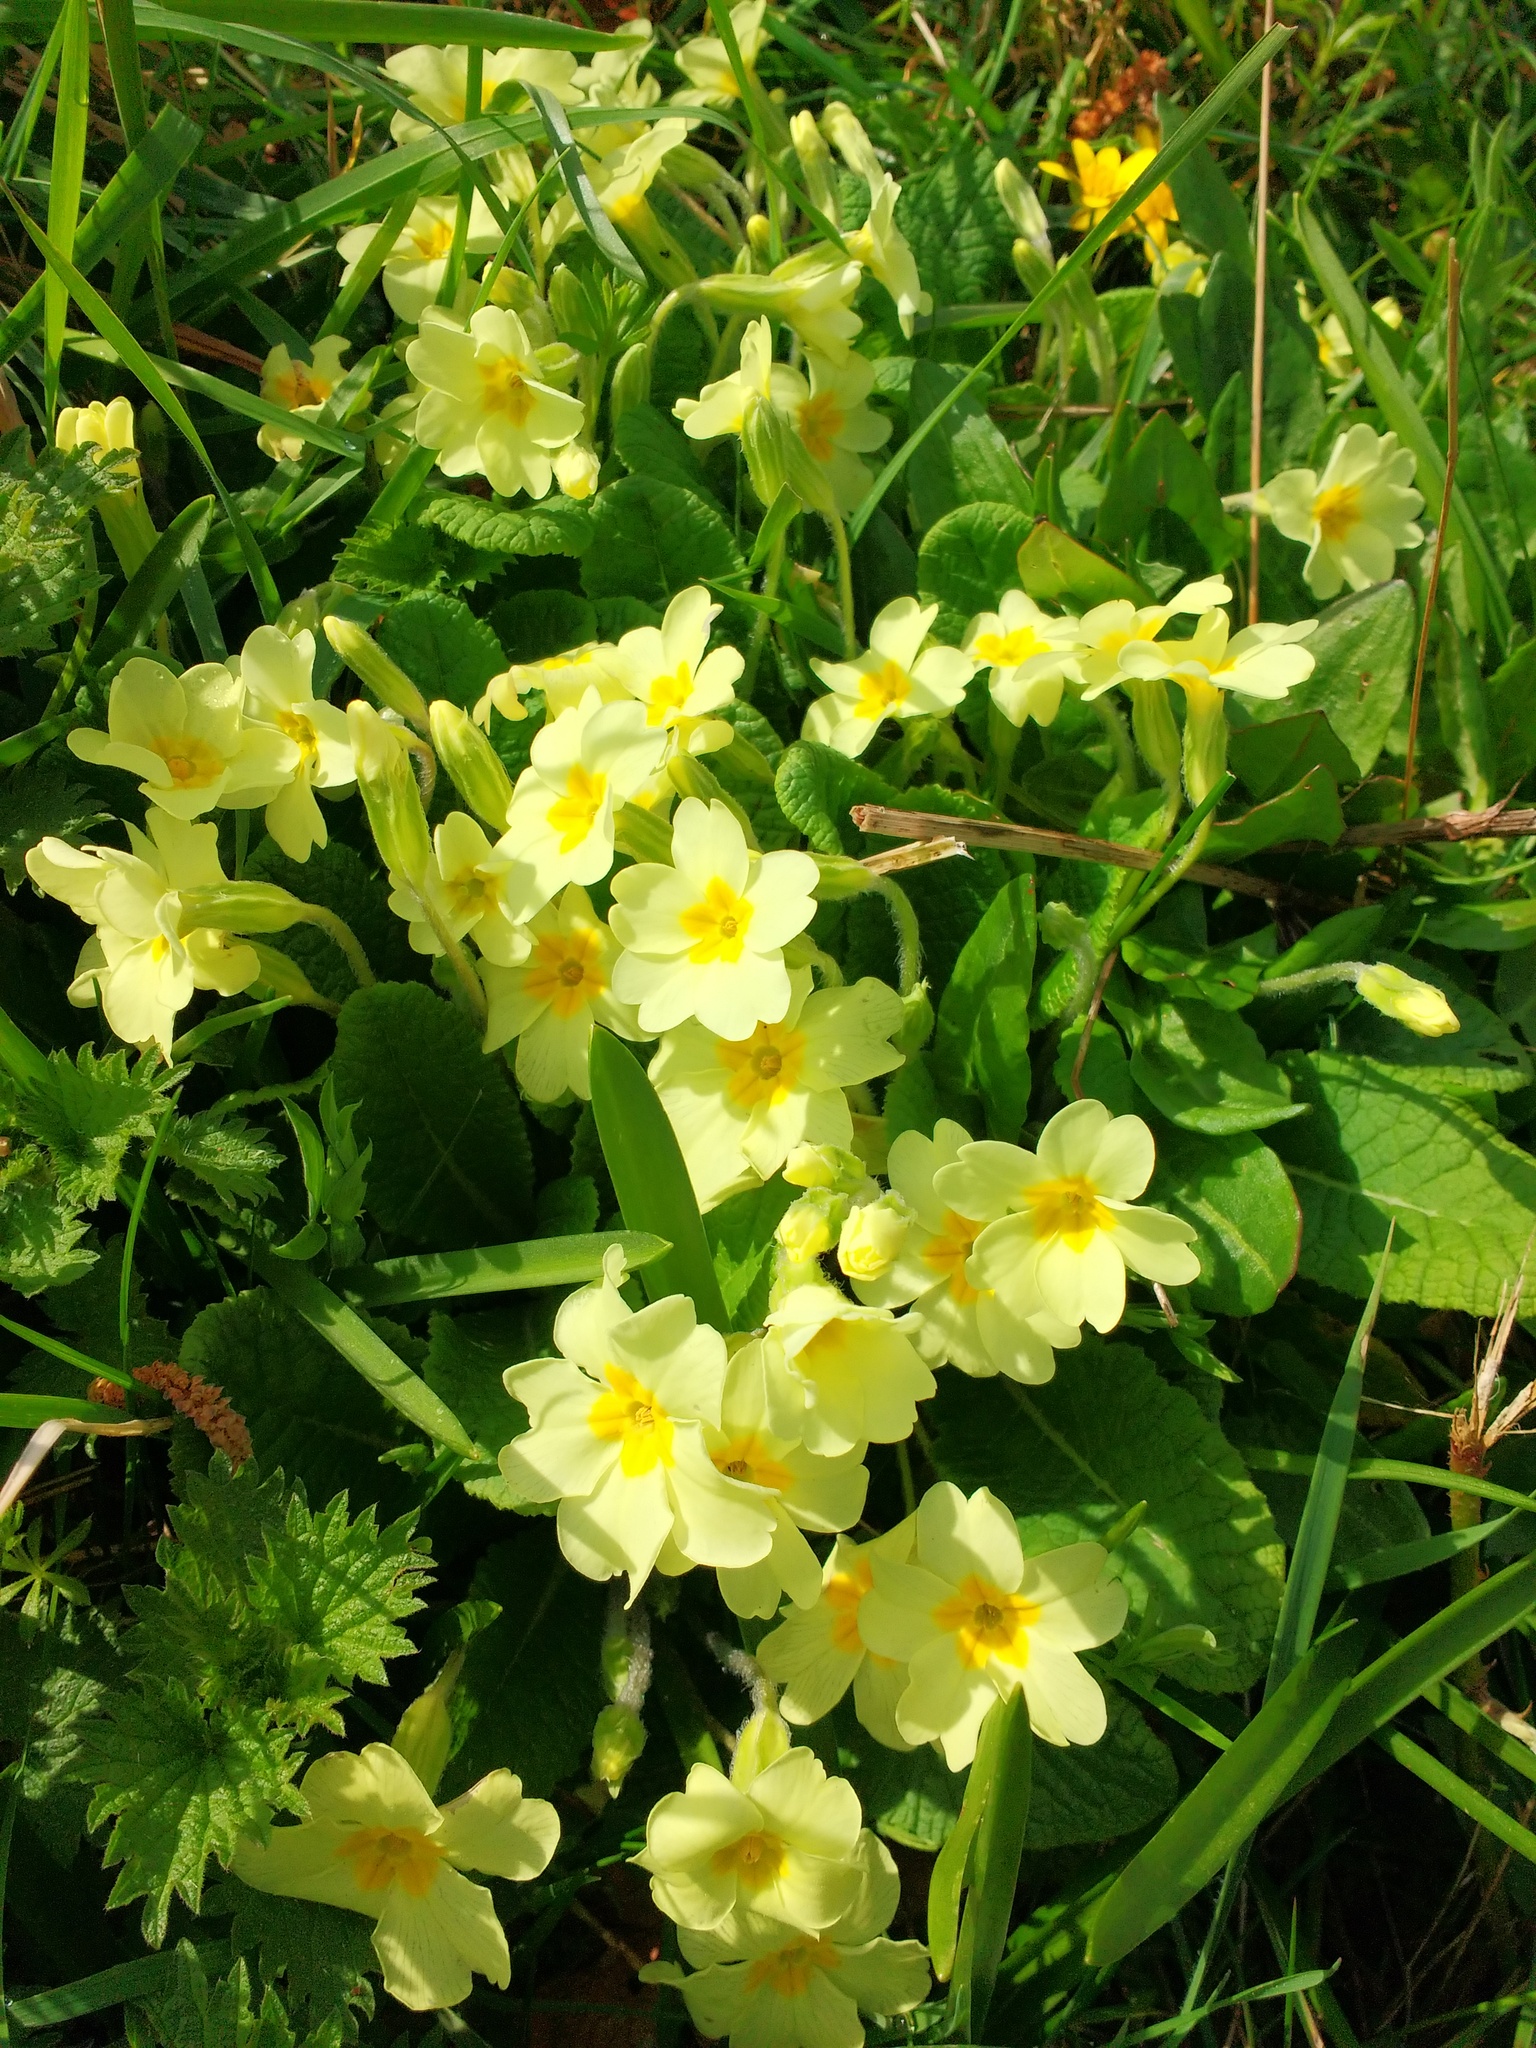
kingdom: Plantae
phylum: Tracheophyta
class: Magnoliopsida
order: Ericales
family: Primulaceae
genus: Primula
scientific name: Primula vulgaris
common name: Primrose
